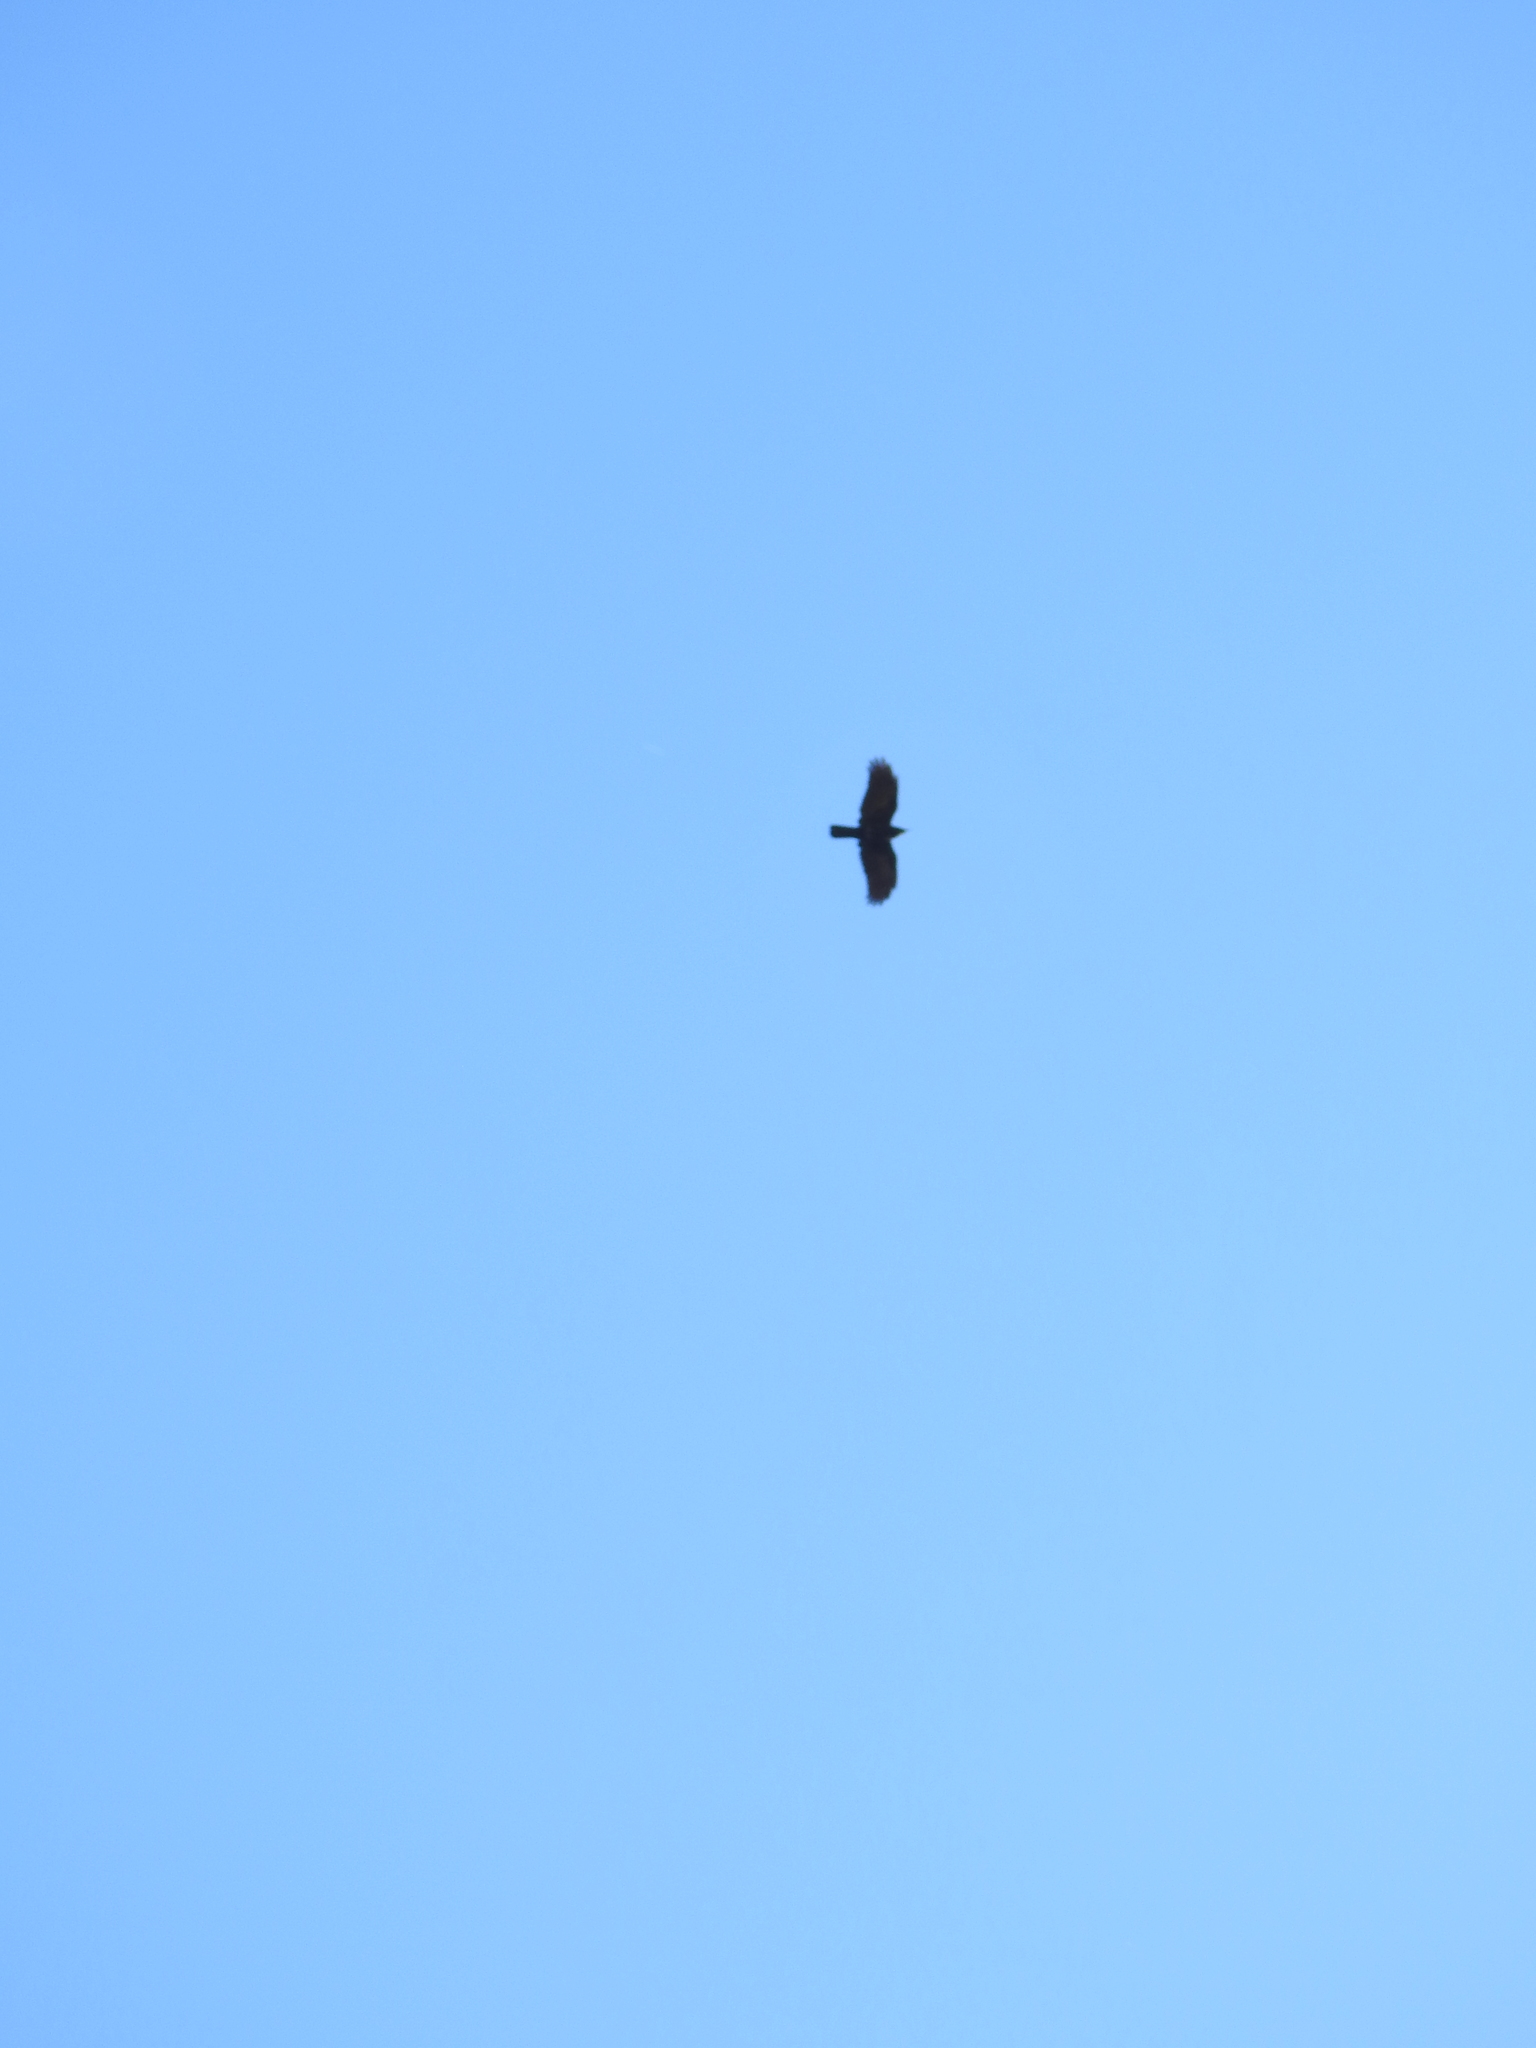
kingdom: Animalia
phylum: Chordata
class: Aves
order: Passeriformes
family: Corvidae
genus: Corvus
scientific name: Corvus brachyrhynchos
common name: American crow
